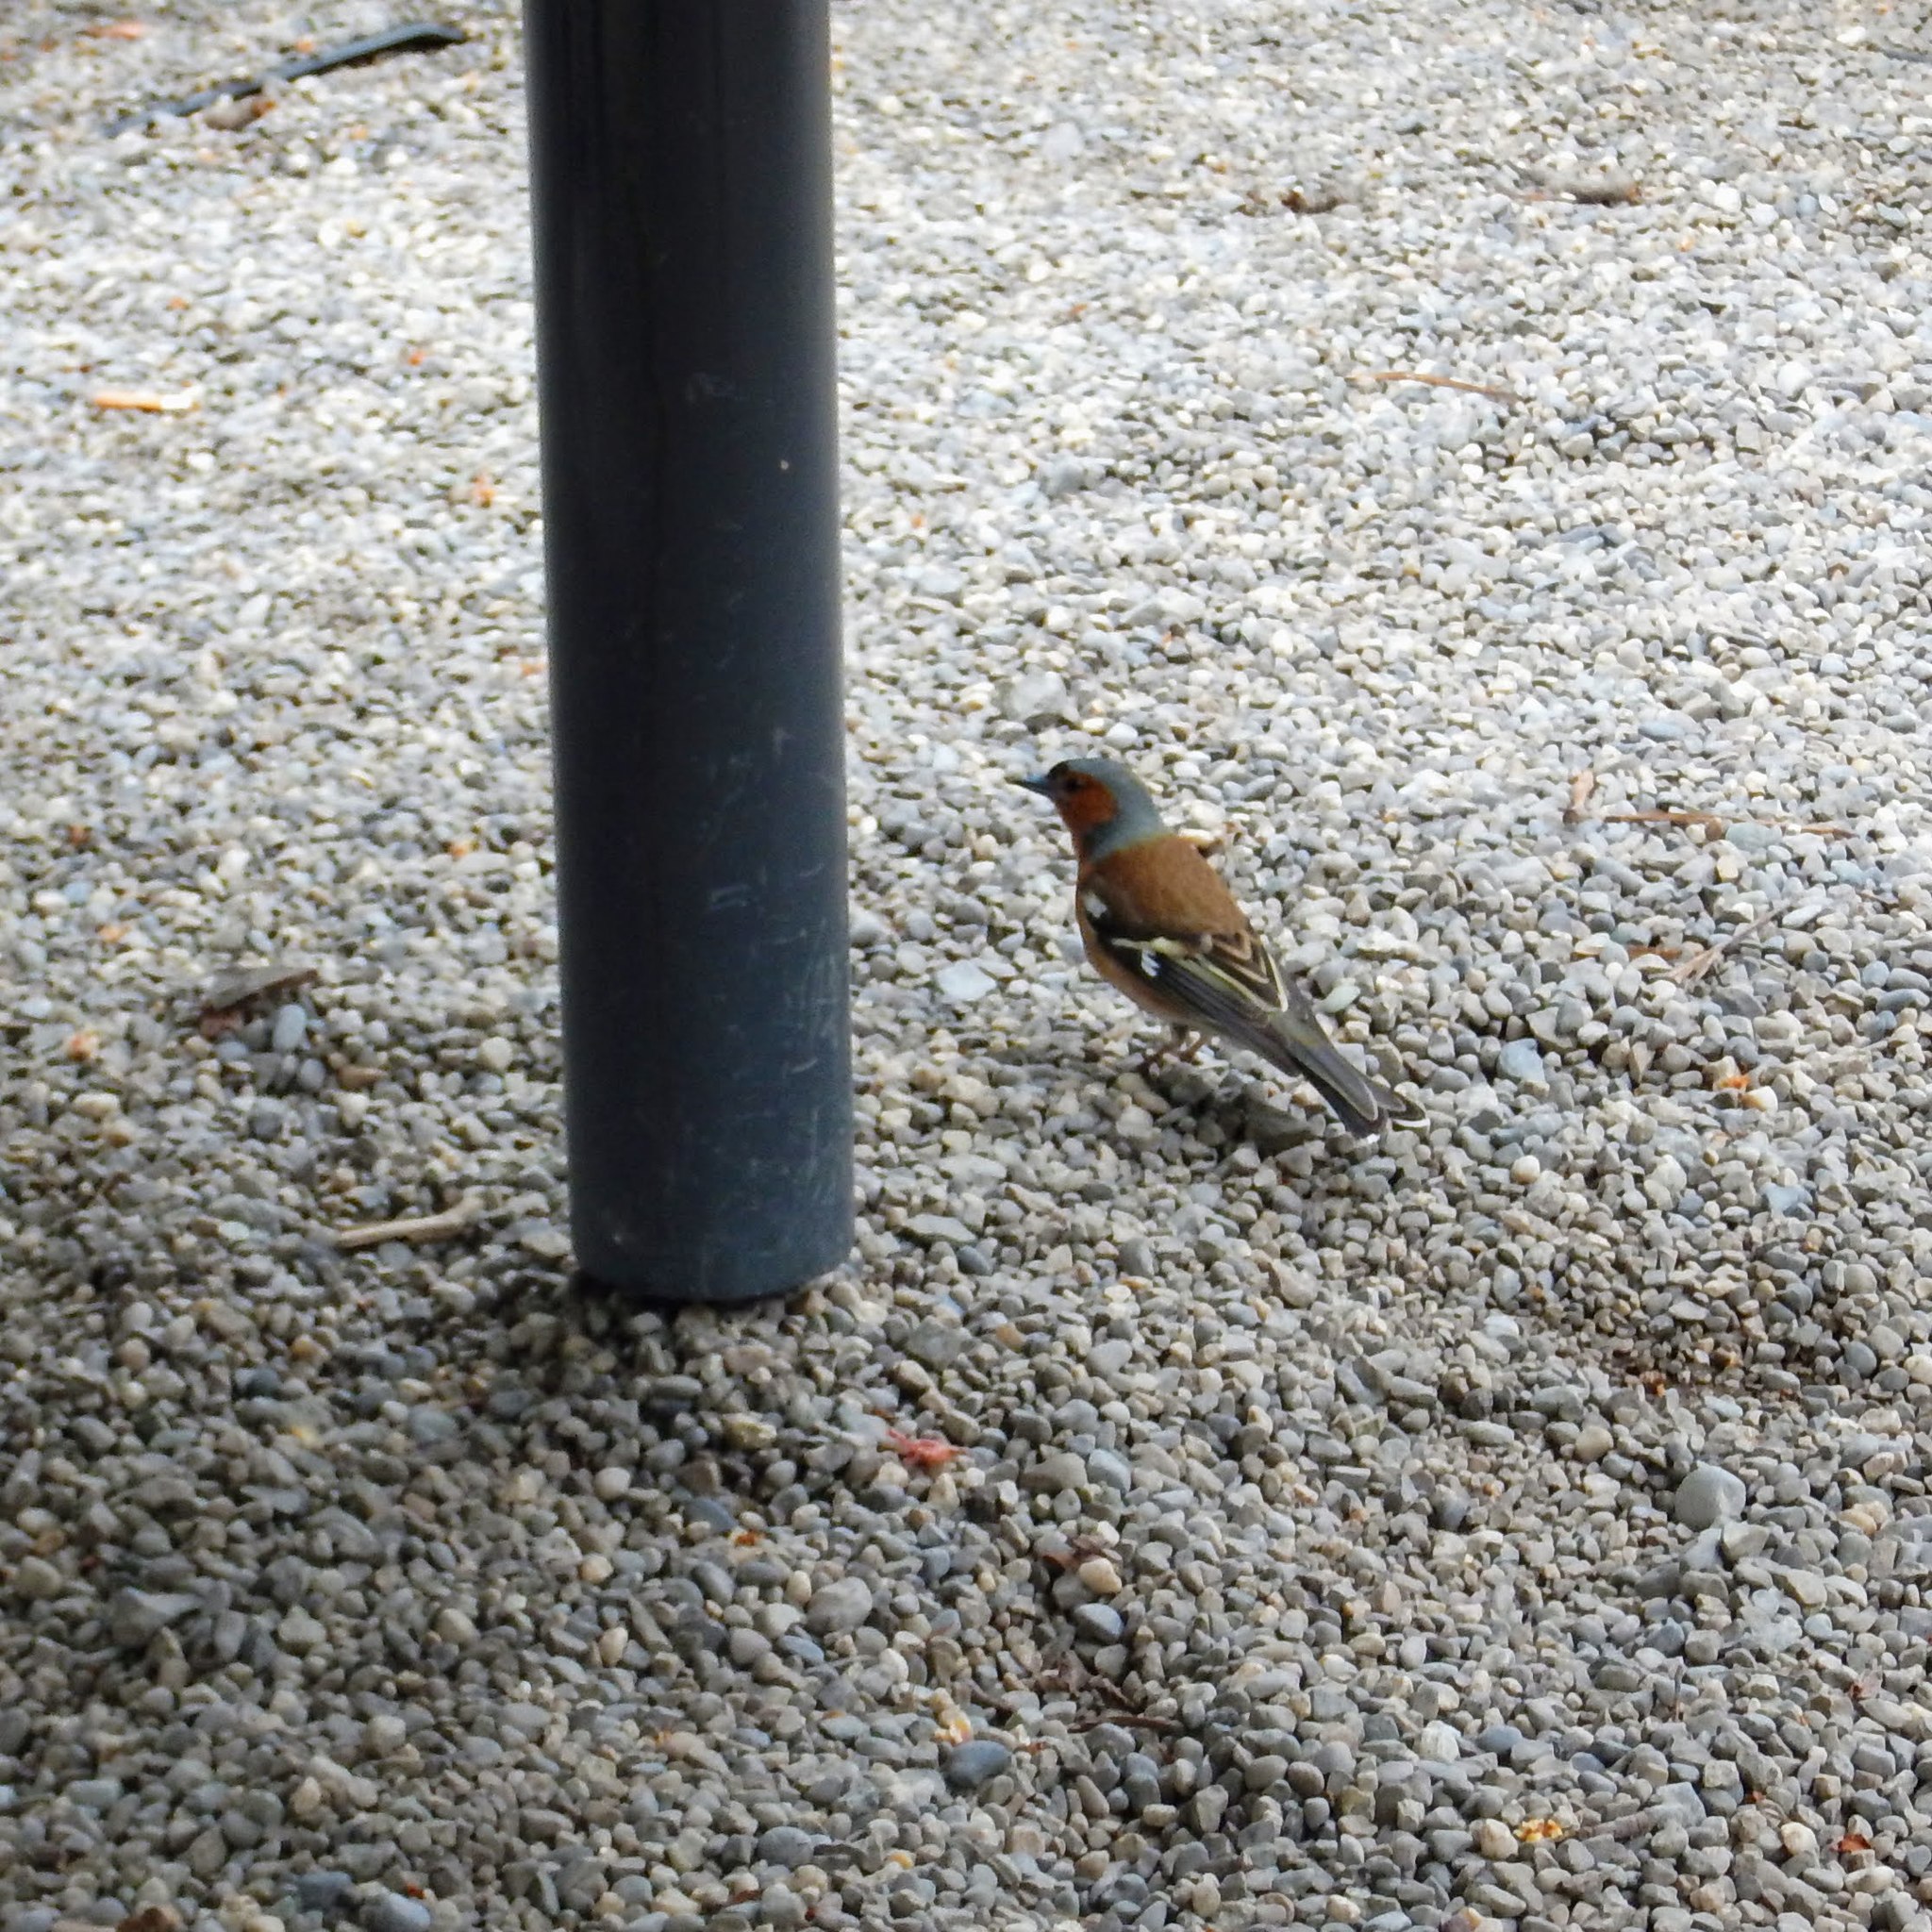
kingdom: Animalia
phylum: Chordata
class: Aves
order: Passeriformes
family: Fringillidae
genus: Fringilla
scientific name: Fringilla coelebs
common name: Common chaffinch
